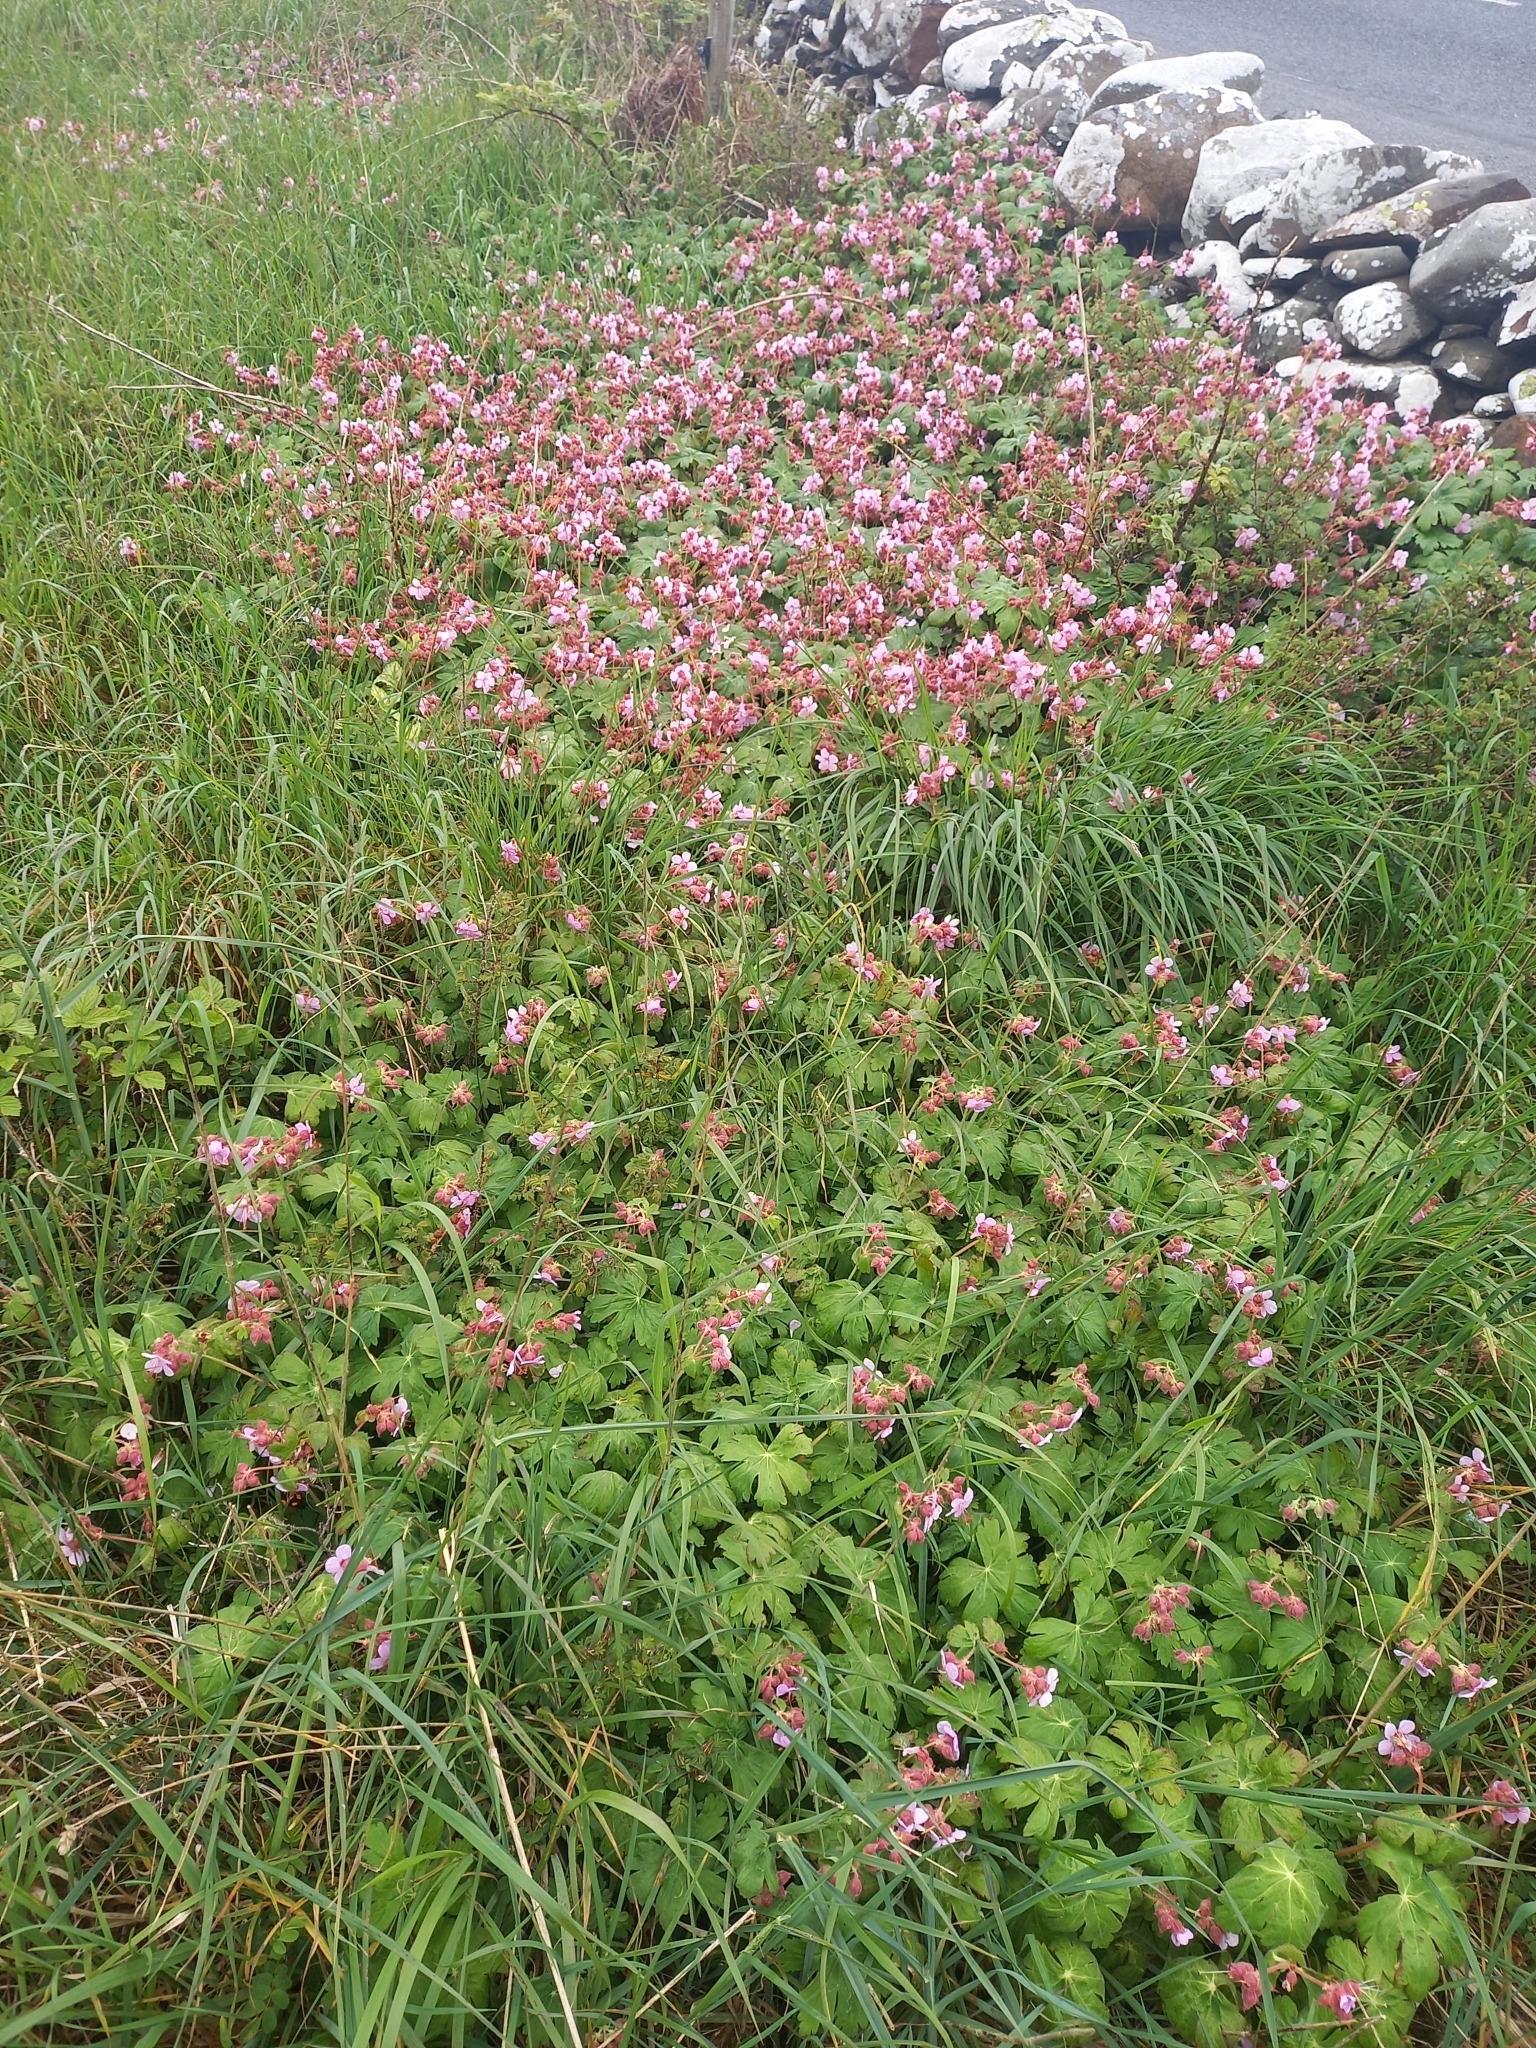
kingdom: Plantae
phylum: Tracheophyta
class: Magnoliopsida
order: Geraniales
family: Geraniaceae
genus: Geranium
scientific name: Geranium macrorrhizum
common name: Rock crane's-bill
